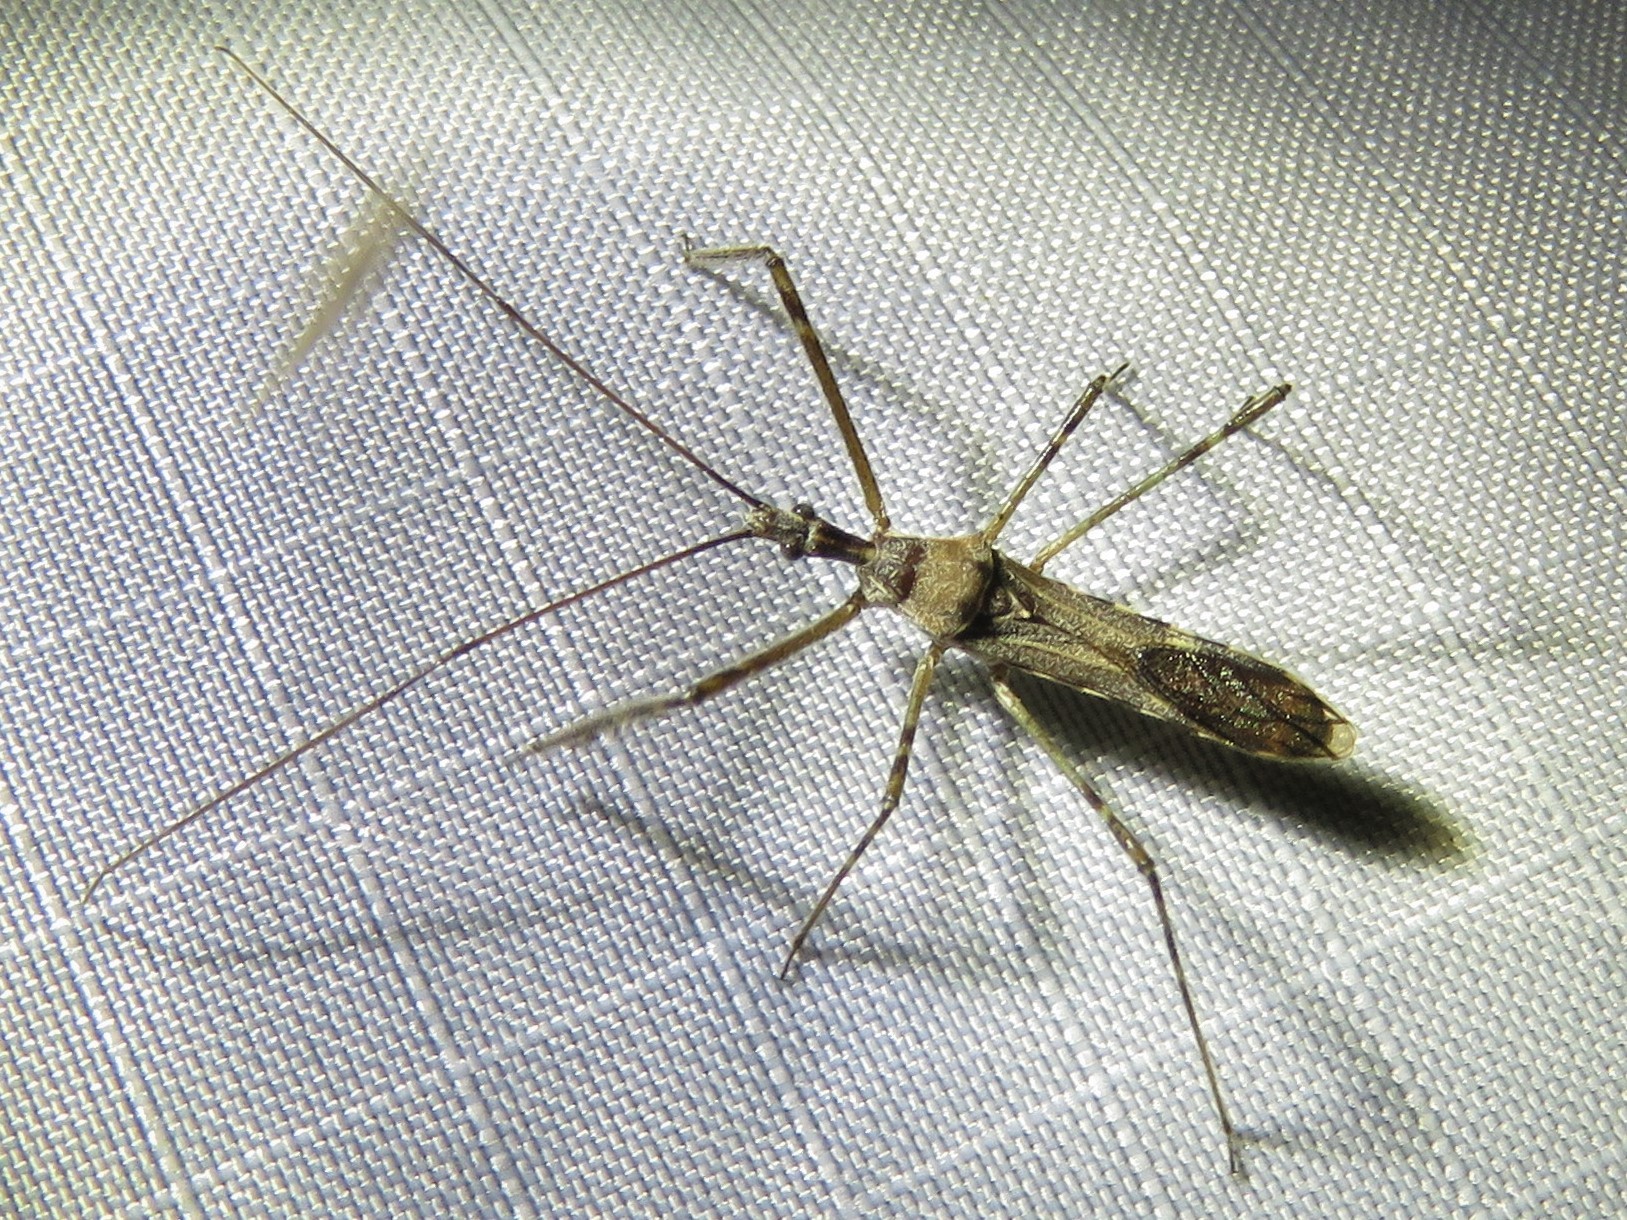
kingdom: Animalia
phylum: Arthropoda
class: Insecta
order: Hemiptera
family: Reduviidae
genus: Zelus
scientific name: Zelus tetracanthus
